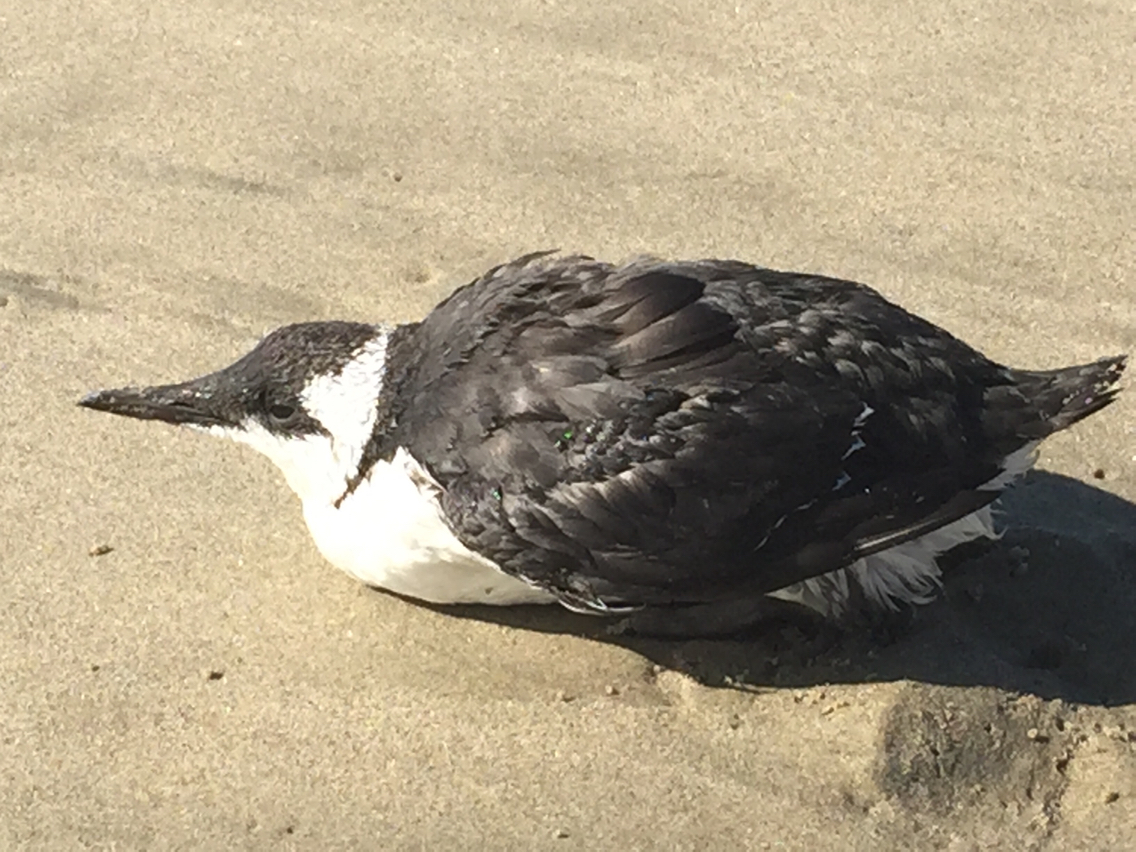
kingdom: Animalia
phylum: Chordata
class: Aves
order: Charadriiformes
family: Alcidae
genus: Uria
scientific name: Uria aalge
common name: Common murre
